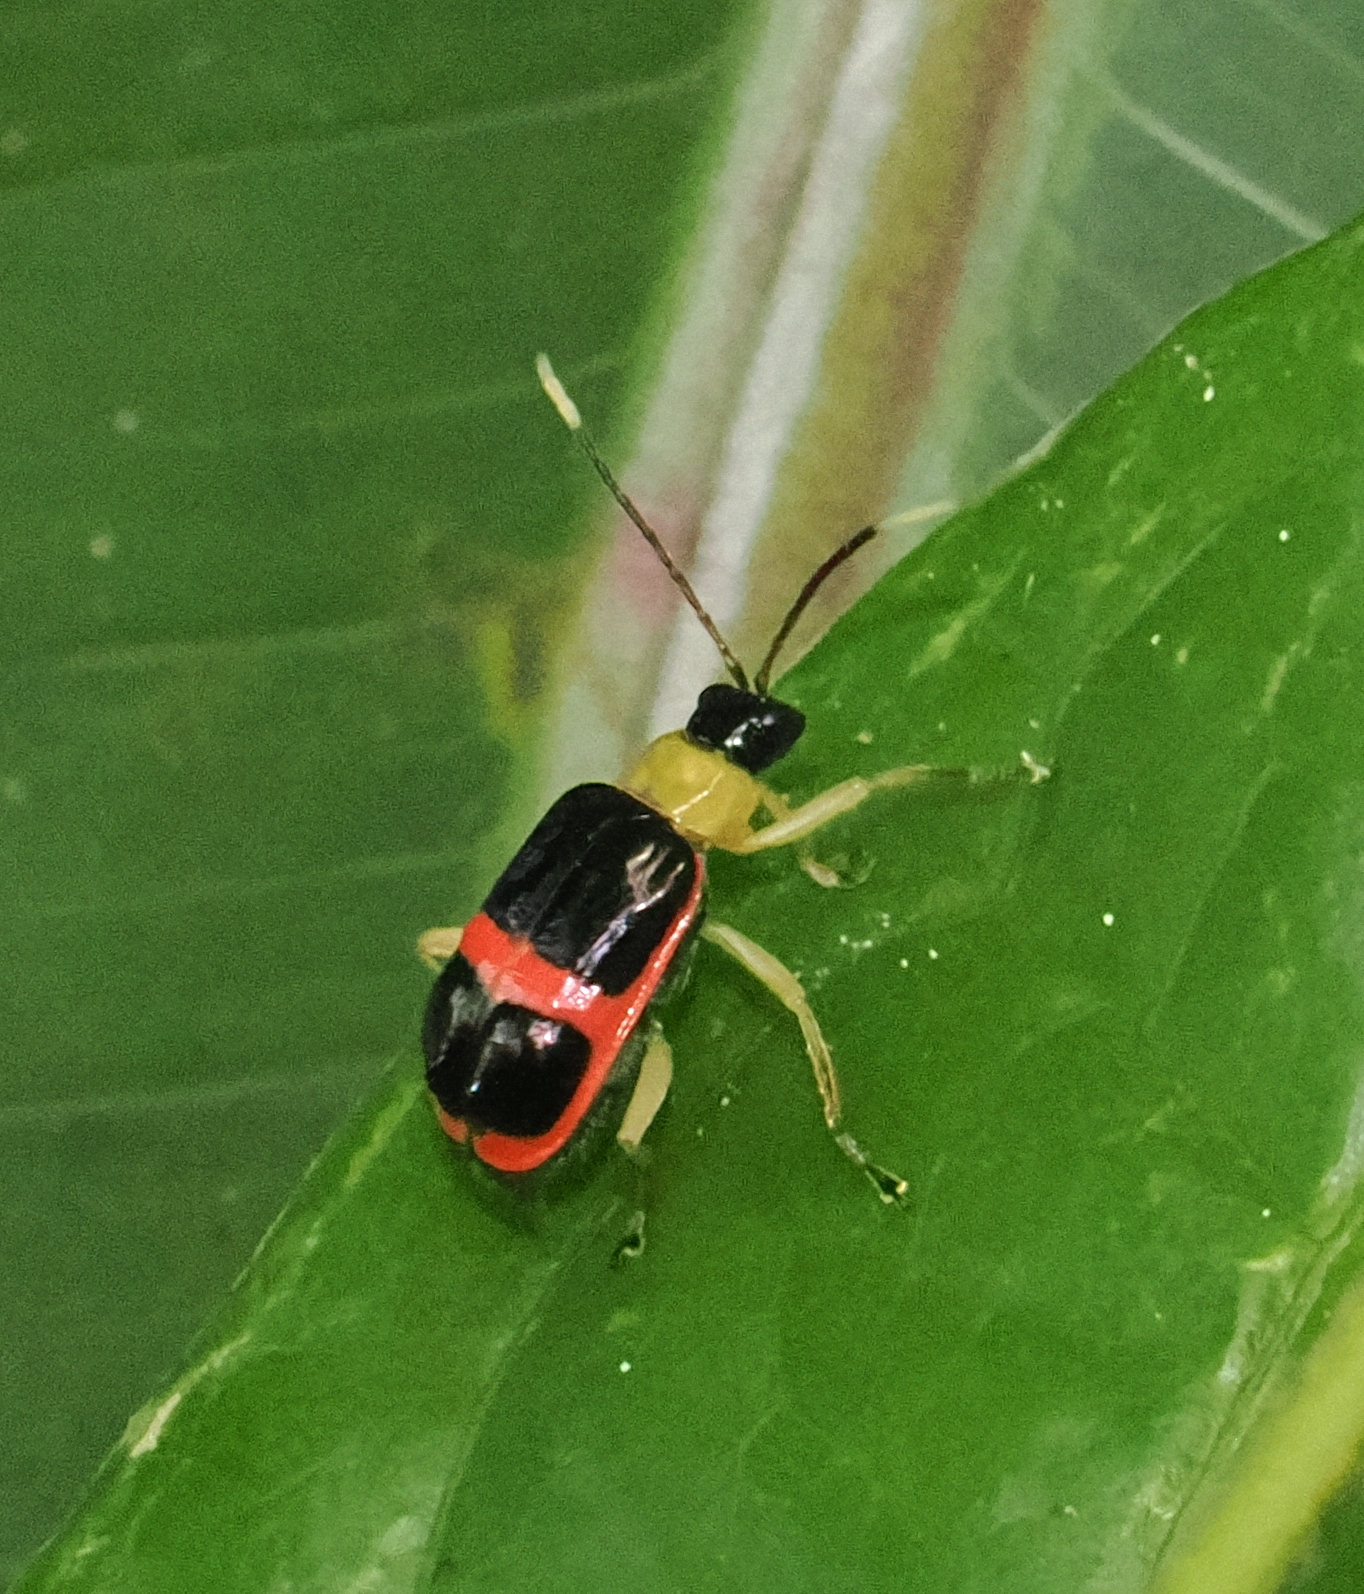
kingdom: Animalia
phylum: Arthropoda
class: Insecta
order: Coleoptera
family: Chrysomelidae
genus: Paratriarius
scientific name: Paratriarius
